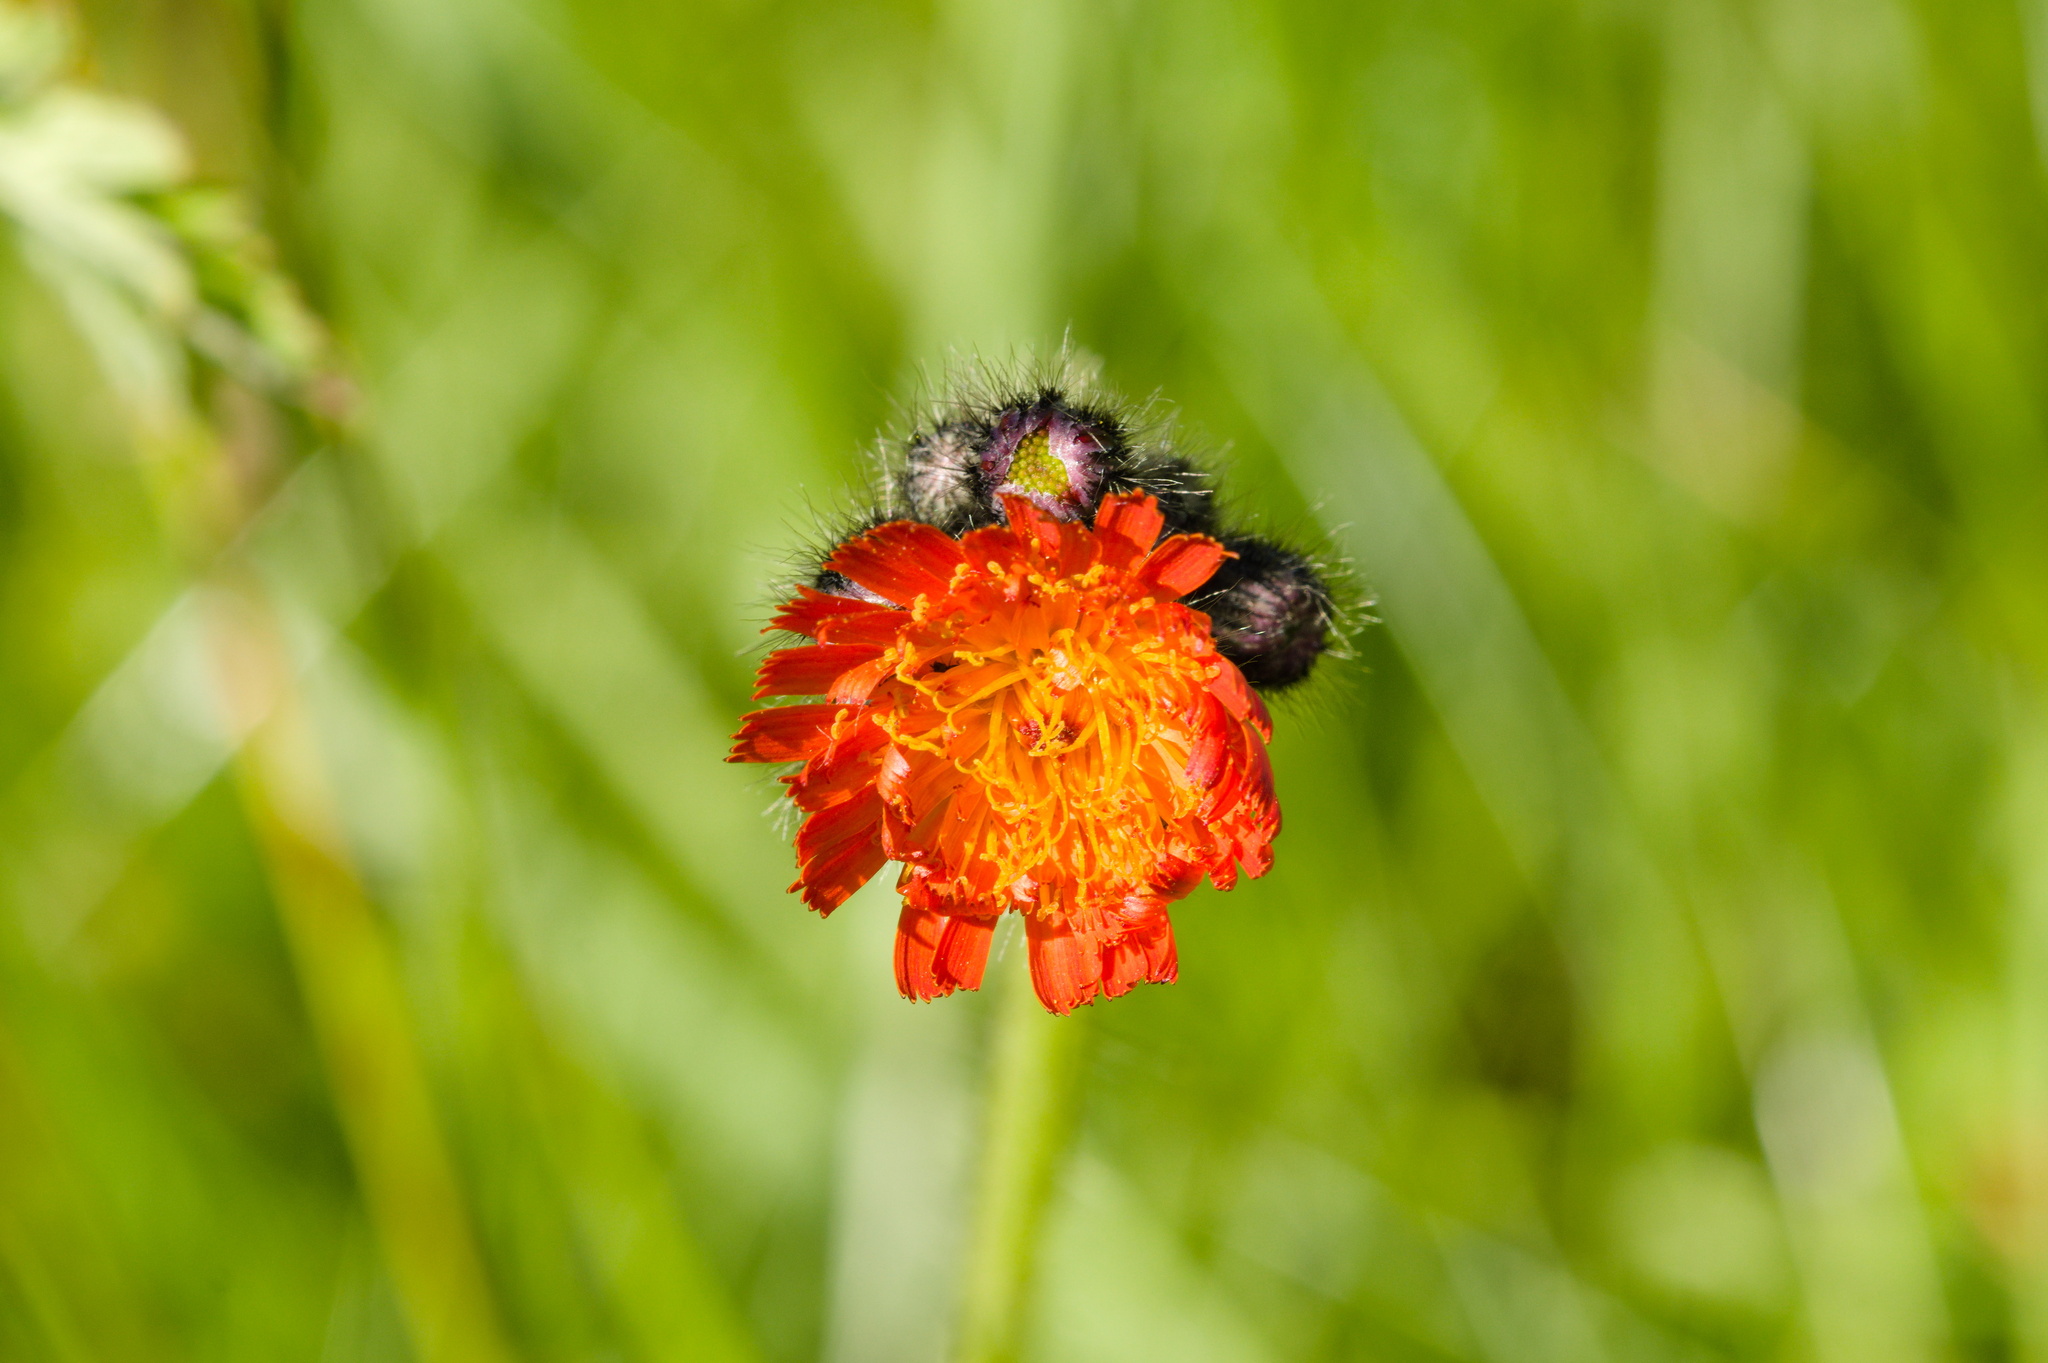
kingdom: Plantae
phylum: Tracheophyta
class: Magnoliopsida
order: Asterales
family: Asteraceae
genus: Pilosella
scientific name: Pilosella aurantiaca
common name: Fox-and-cubs
